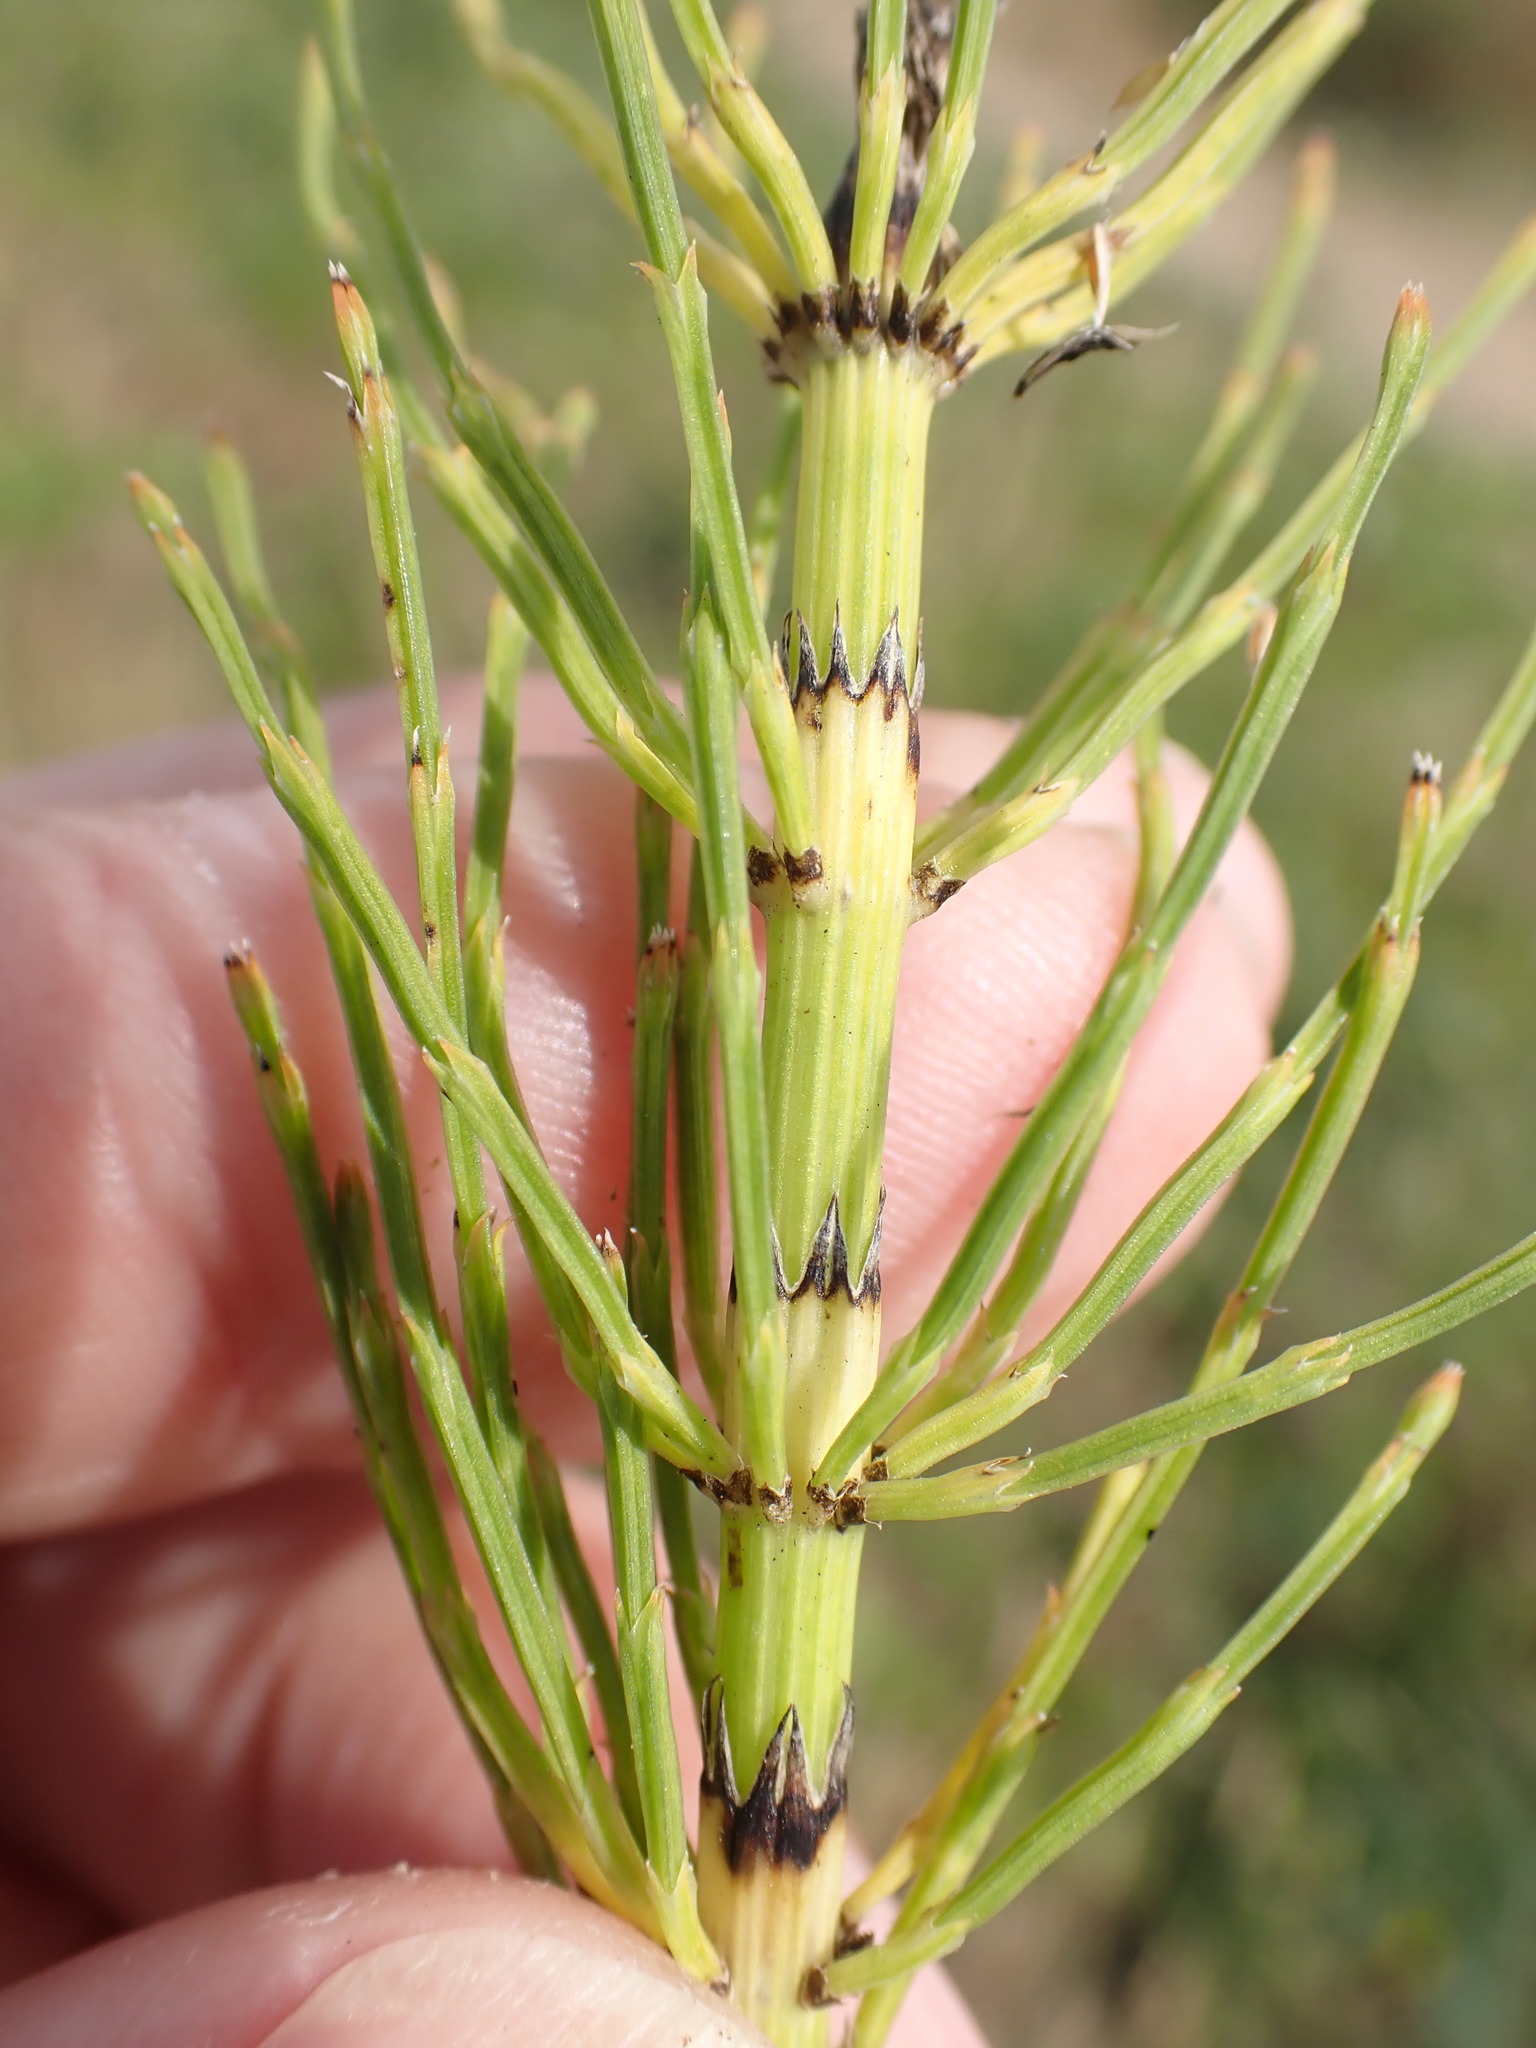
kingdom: Plantae
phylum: Tracheophyta
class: Polypodiopsida
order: Equisetales
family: Equisetaceae
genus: Equisetum
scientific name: Equisetum palustre
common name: Marsh horsetail
